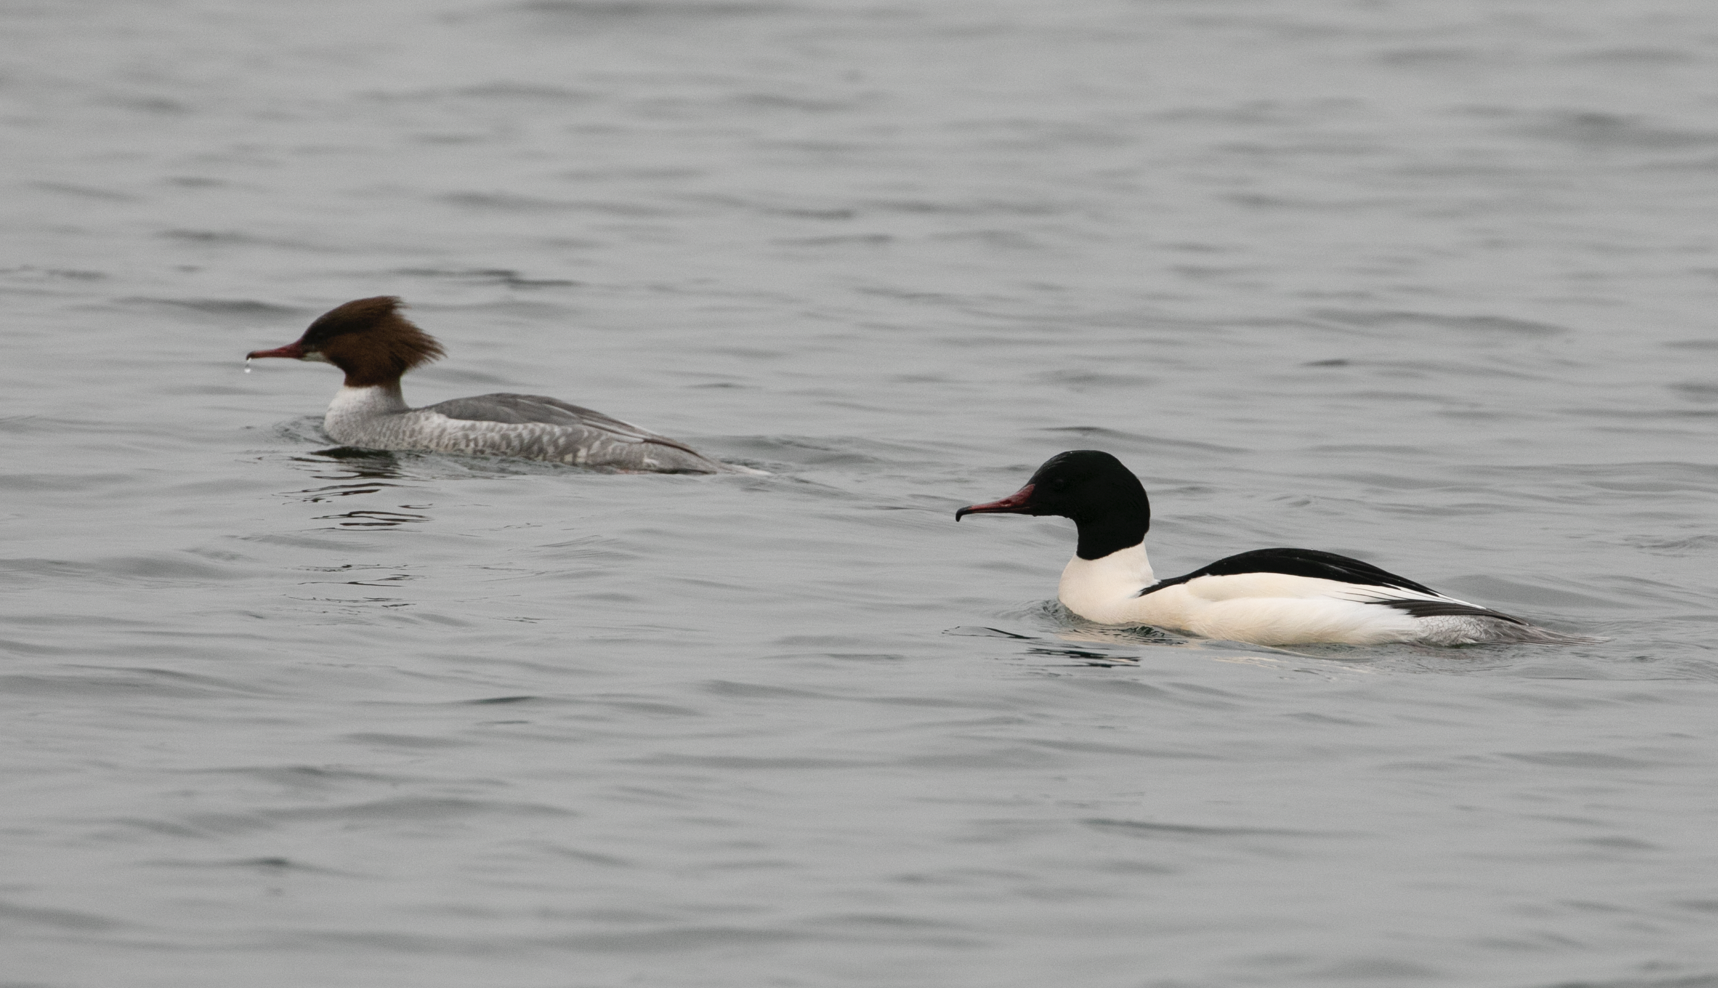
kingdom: Animalia
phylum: Chordata
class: Aves
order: Anseriformes
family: Anatidae
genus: Mergus
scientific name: Mergus merganser
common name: Common merganser
